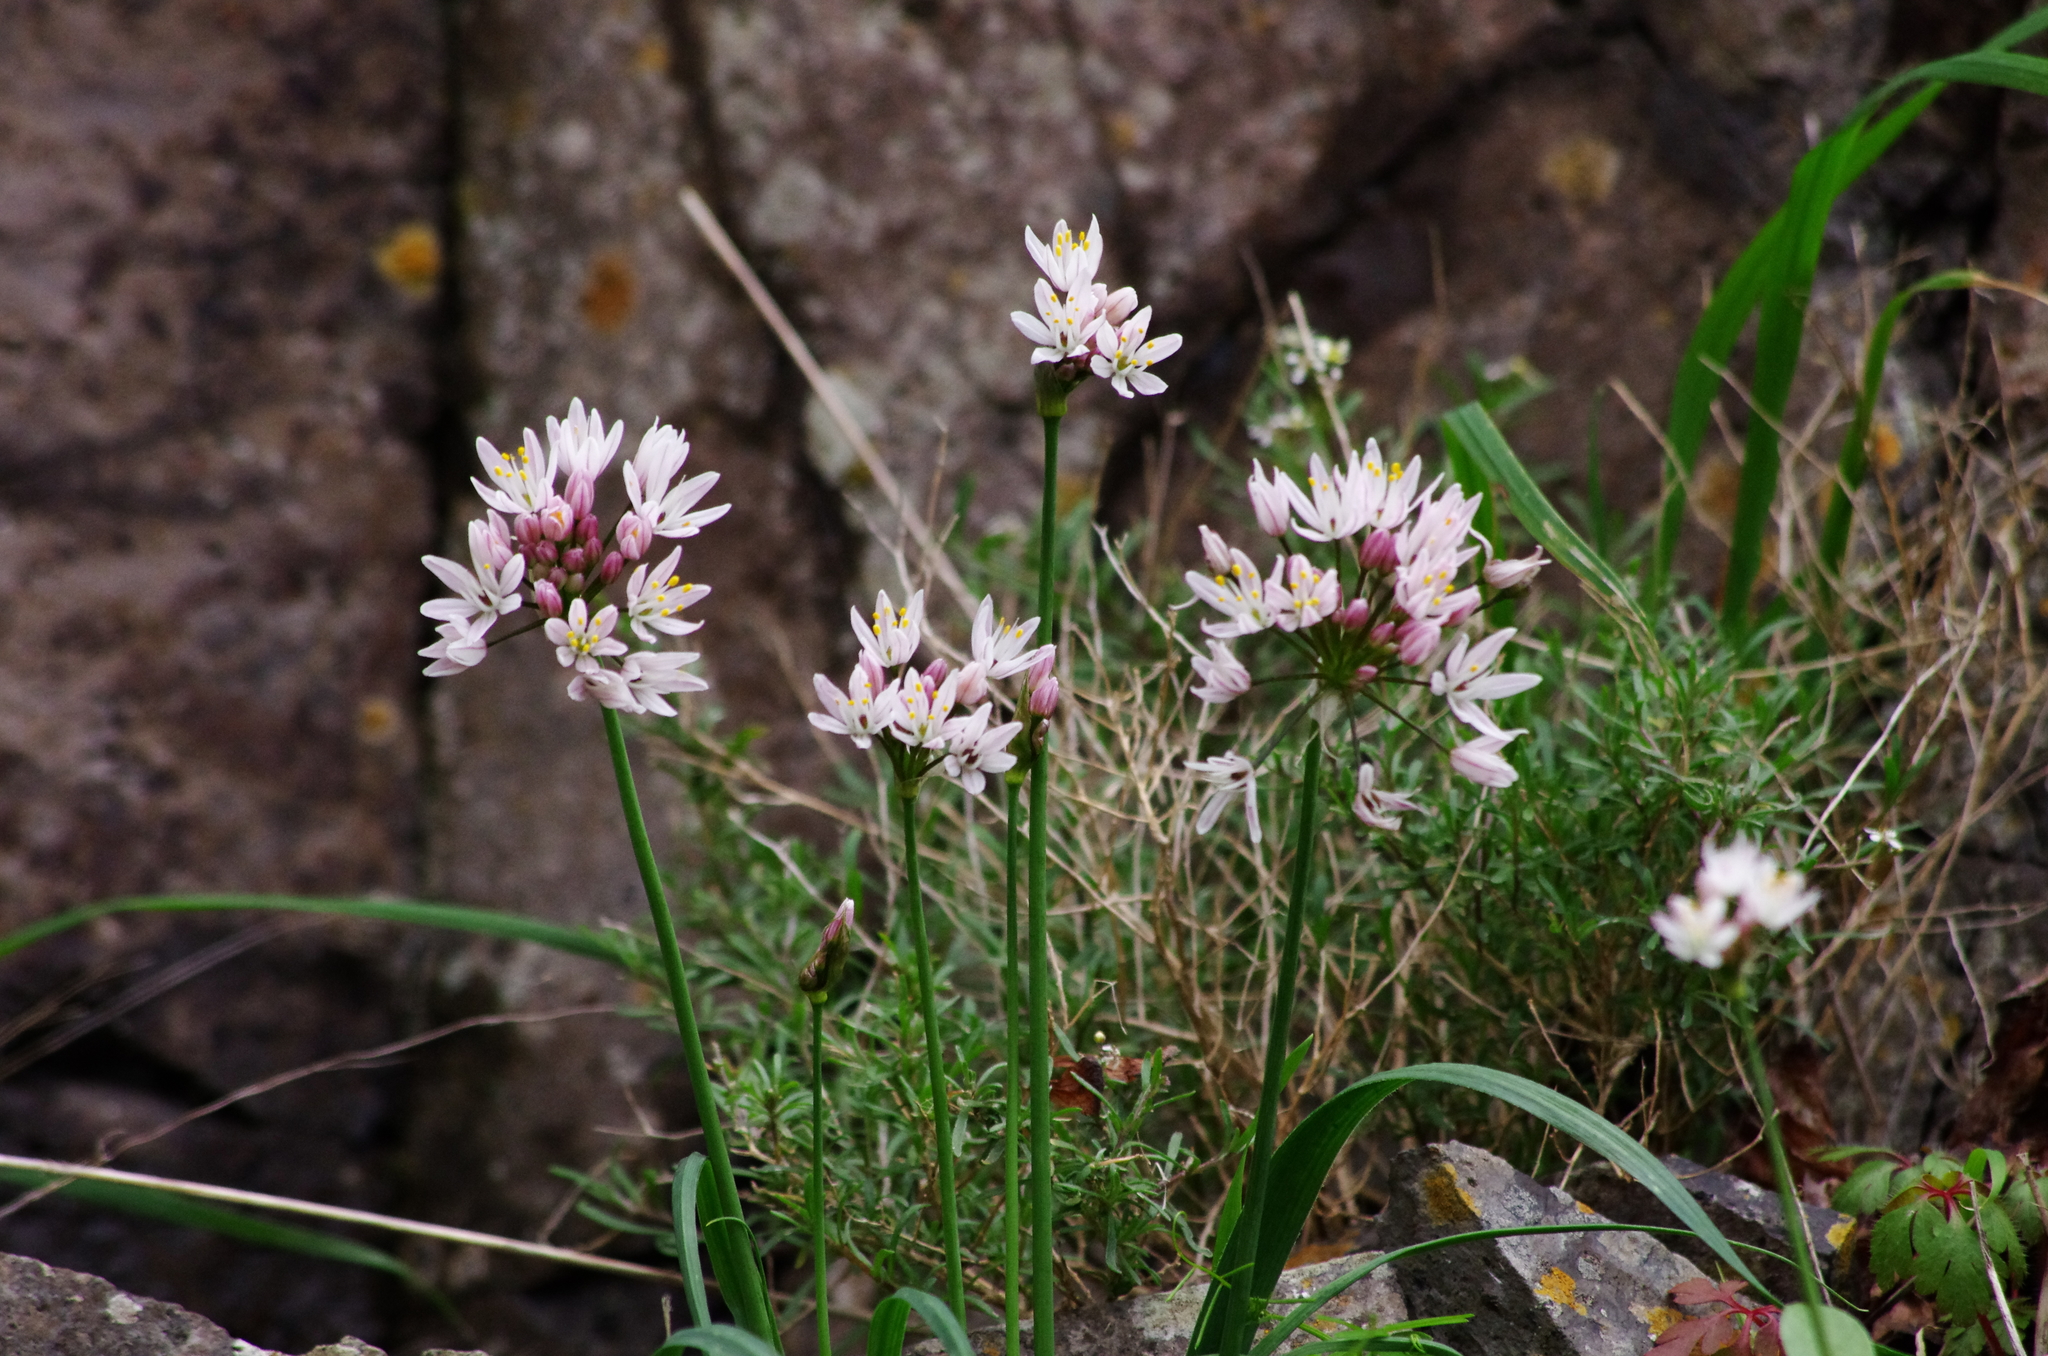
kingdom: Plantae
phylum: Tracheophyta
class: Liliopsida
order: Asparagales
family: Amaryllidaceae
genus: Allium
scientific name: Allium canariense
